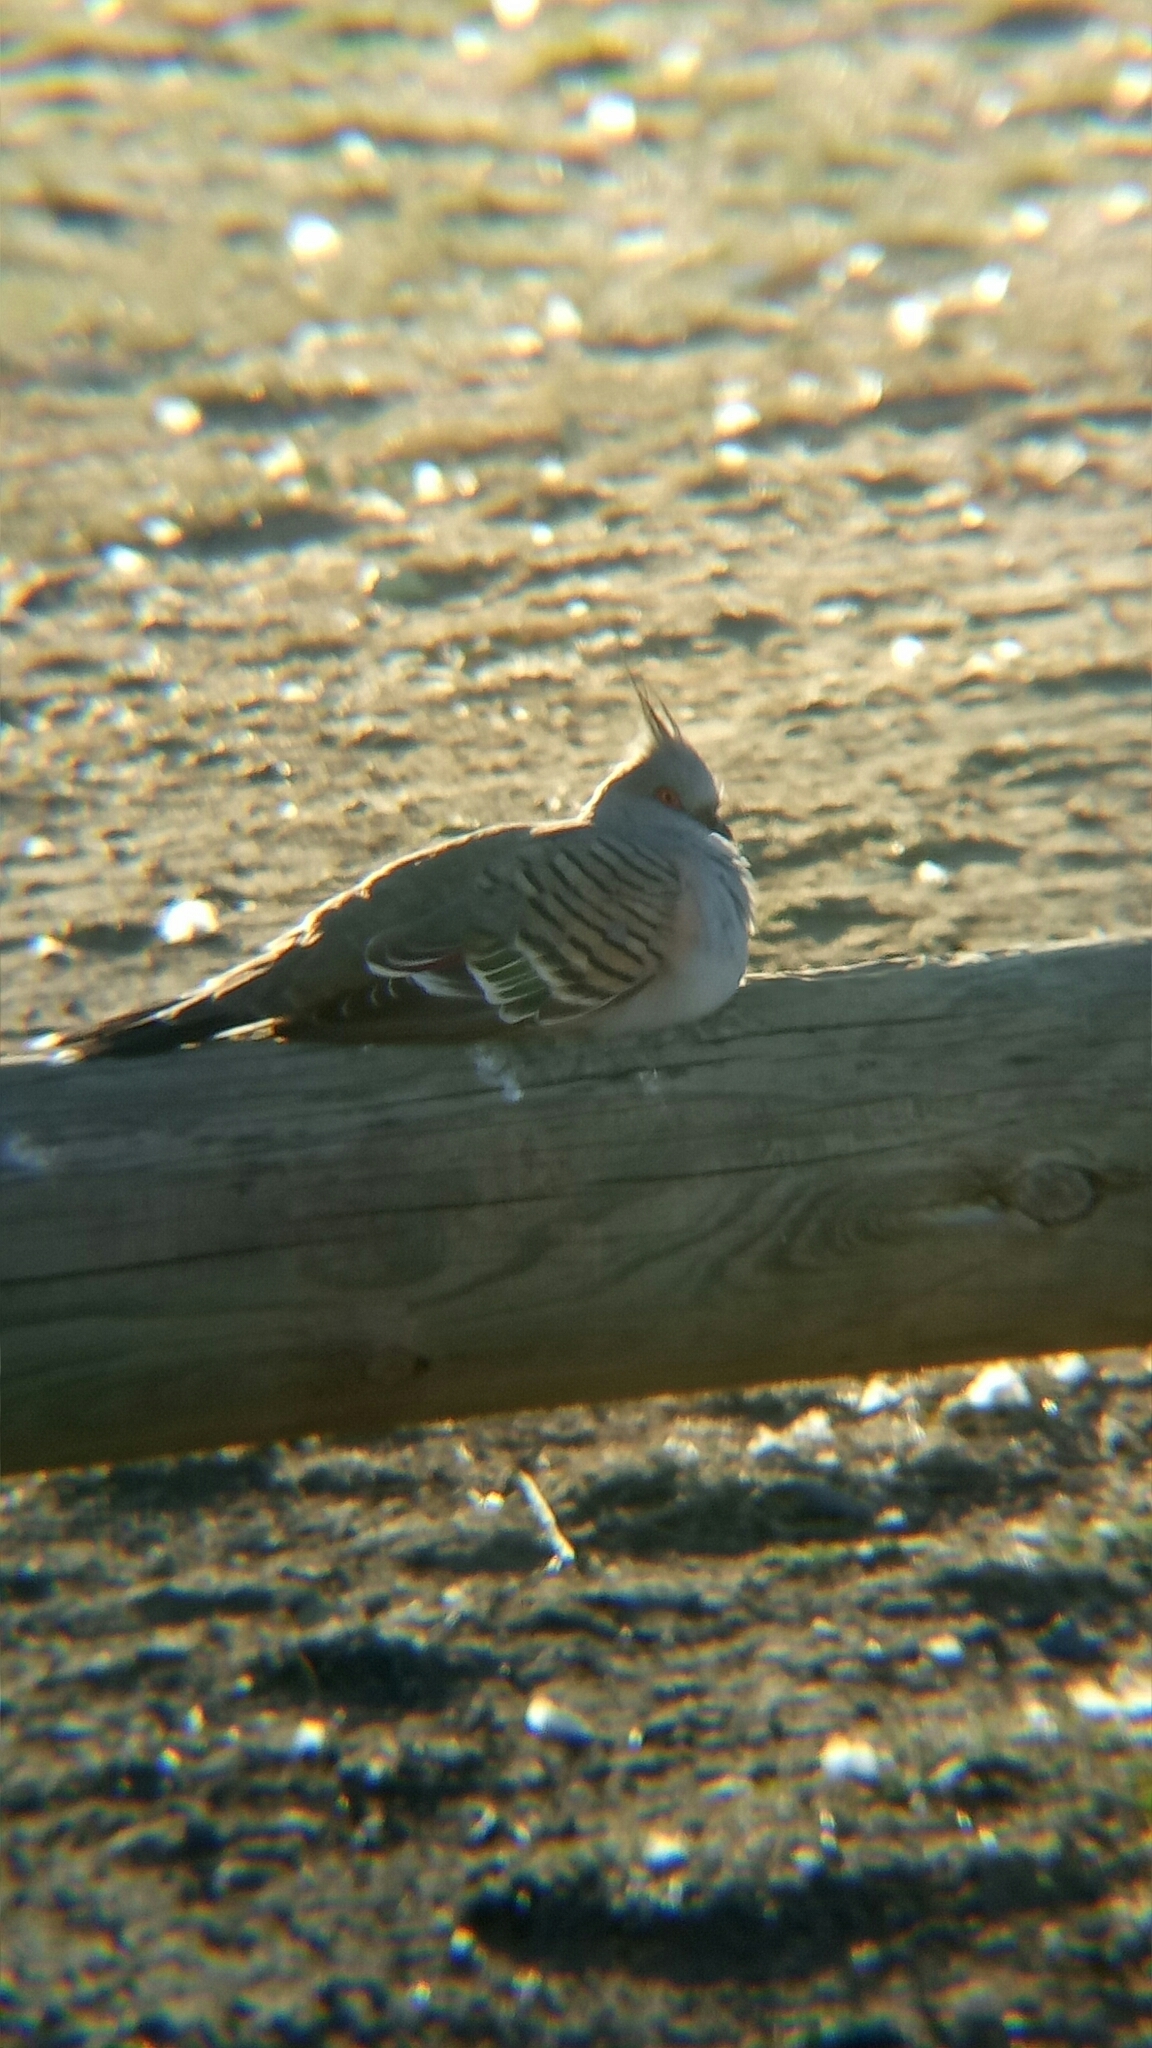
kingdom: Animalia
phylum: Chordata
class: Aves
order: Columbiformes
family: Columbidae
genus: Ocyphaps
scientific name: Ocyphaps lophotes
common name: Crested pigeon
